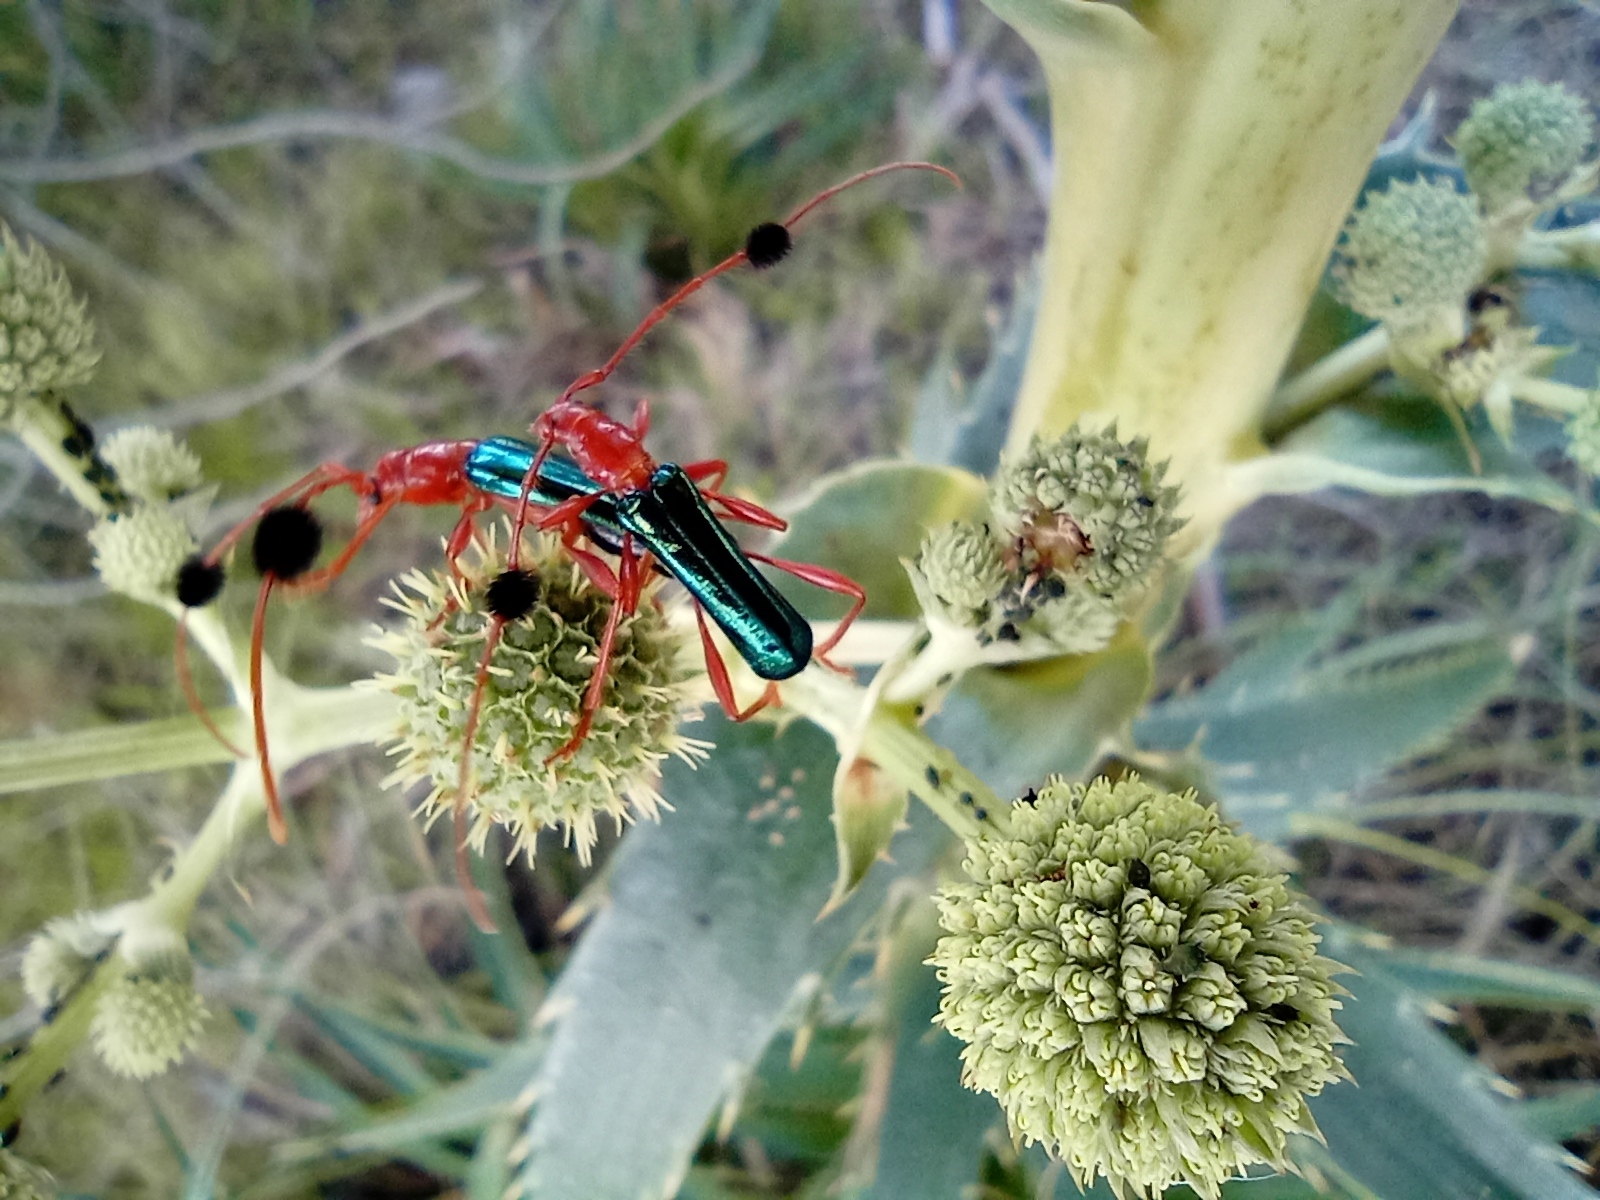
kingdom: Animalia
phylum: Arthropoda
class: Insecta
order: Coleoptera
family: Cerambycidae
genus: Paromoeocerus
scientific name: Paromoeocerus barbicornis
